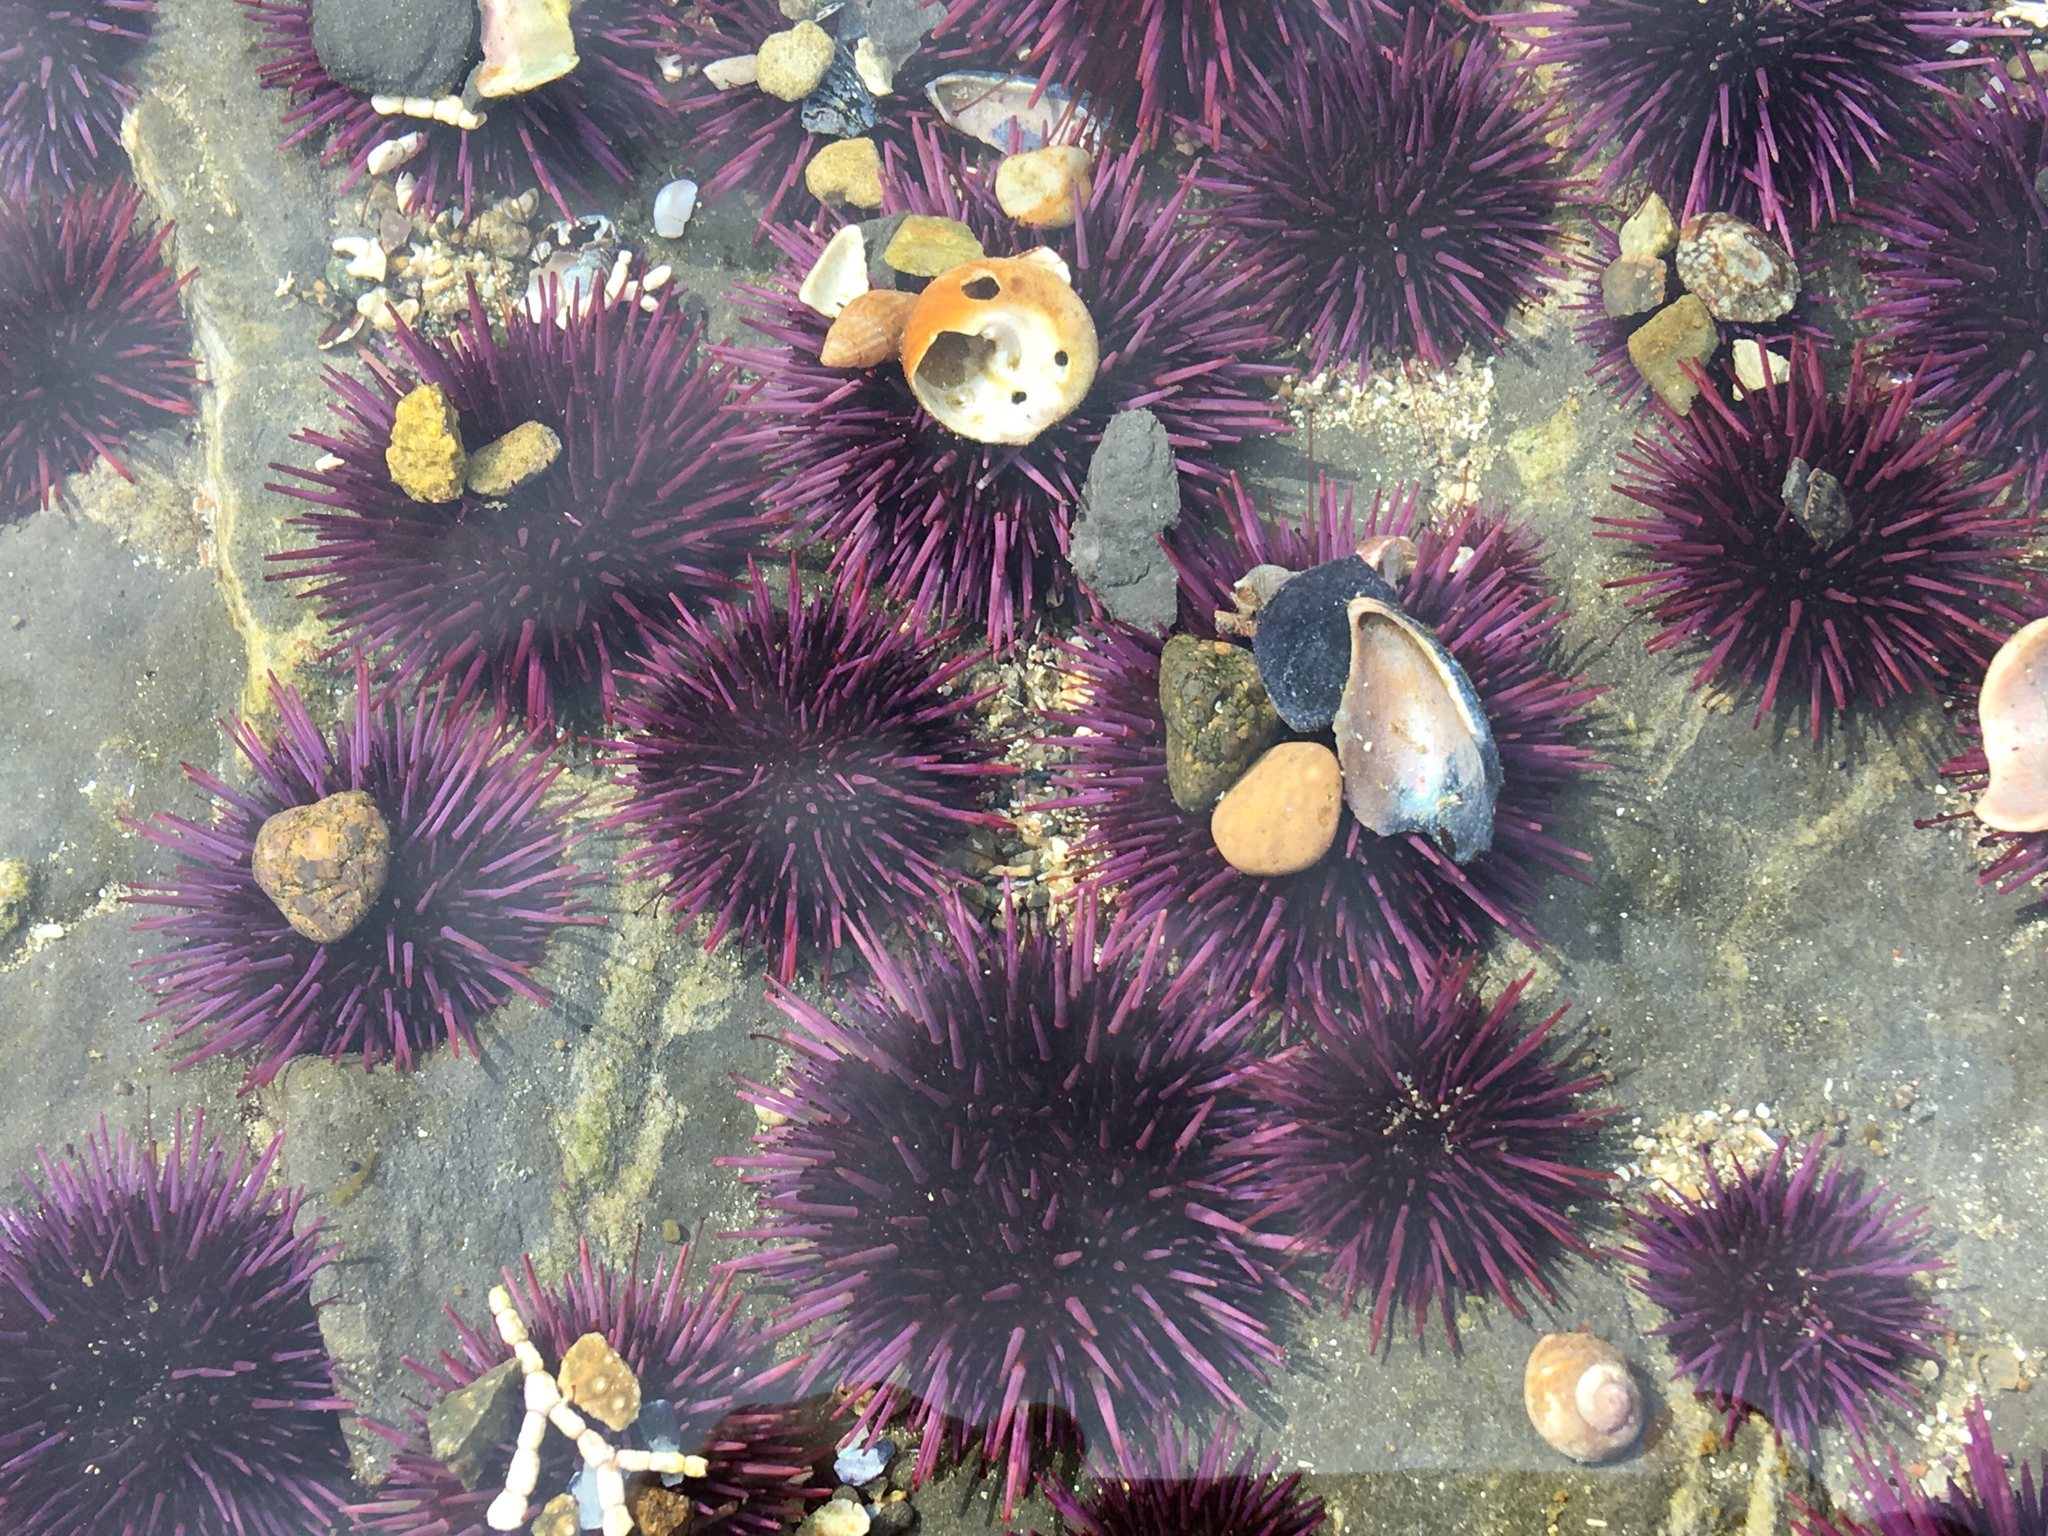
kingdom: Animalia
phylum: Echinodermata
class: Echinoidea
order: Camarodonta
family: Strongylocentrotidae
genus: Strongylocentrotus
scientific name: Strongylocentrotus purpuratus
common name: Purple sea urchin
